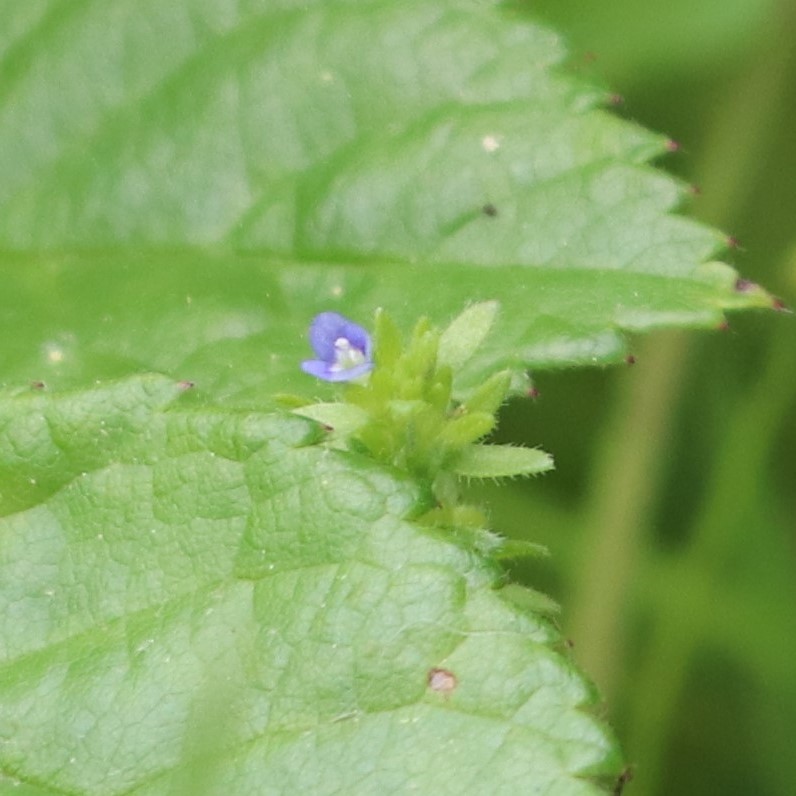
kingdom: Plantae
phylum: Tracheophyta
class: Magnoliopsida
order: Lamiales
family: Plantaginaceae
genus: Veronica
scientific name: Veronica arvensis
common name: Corn speedwell
